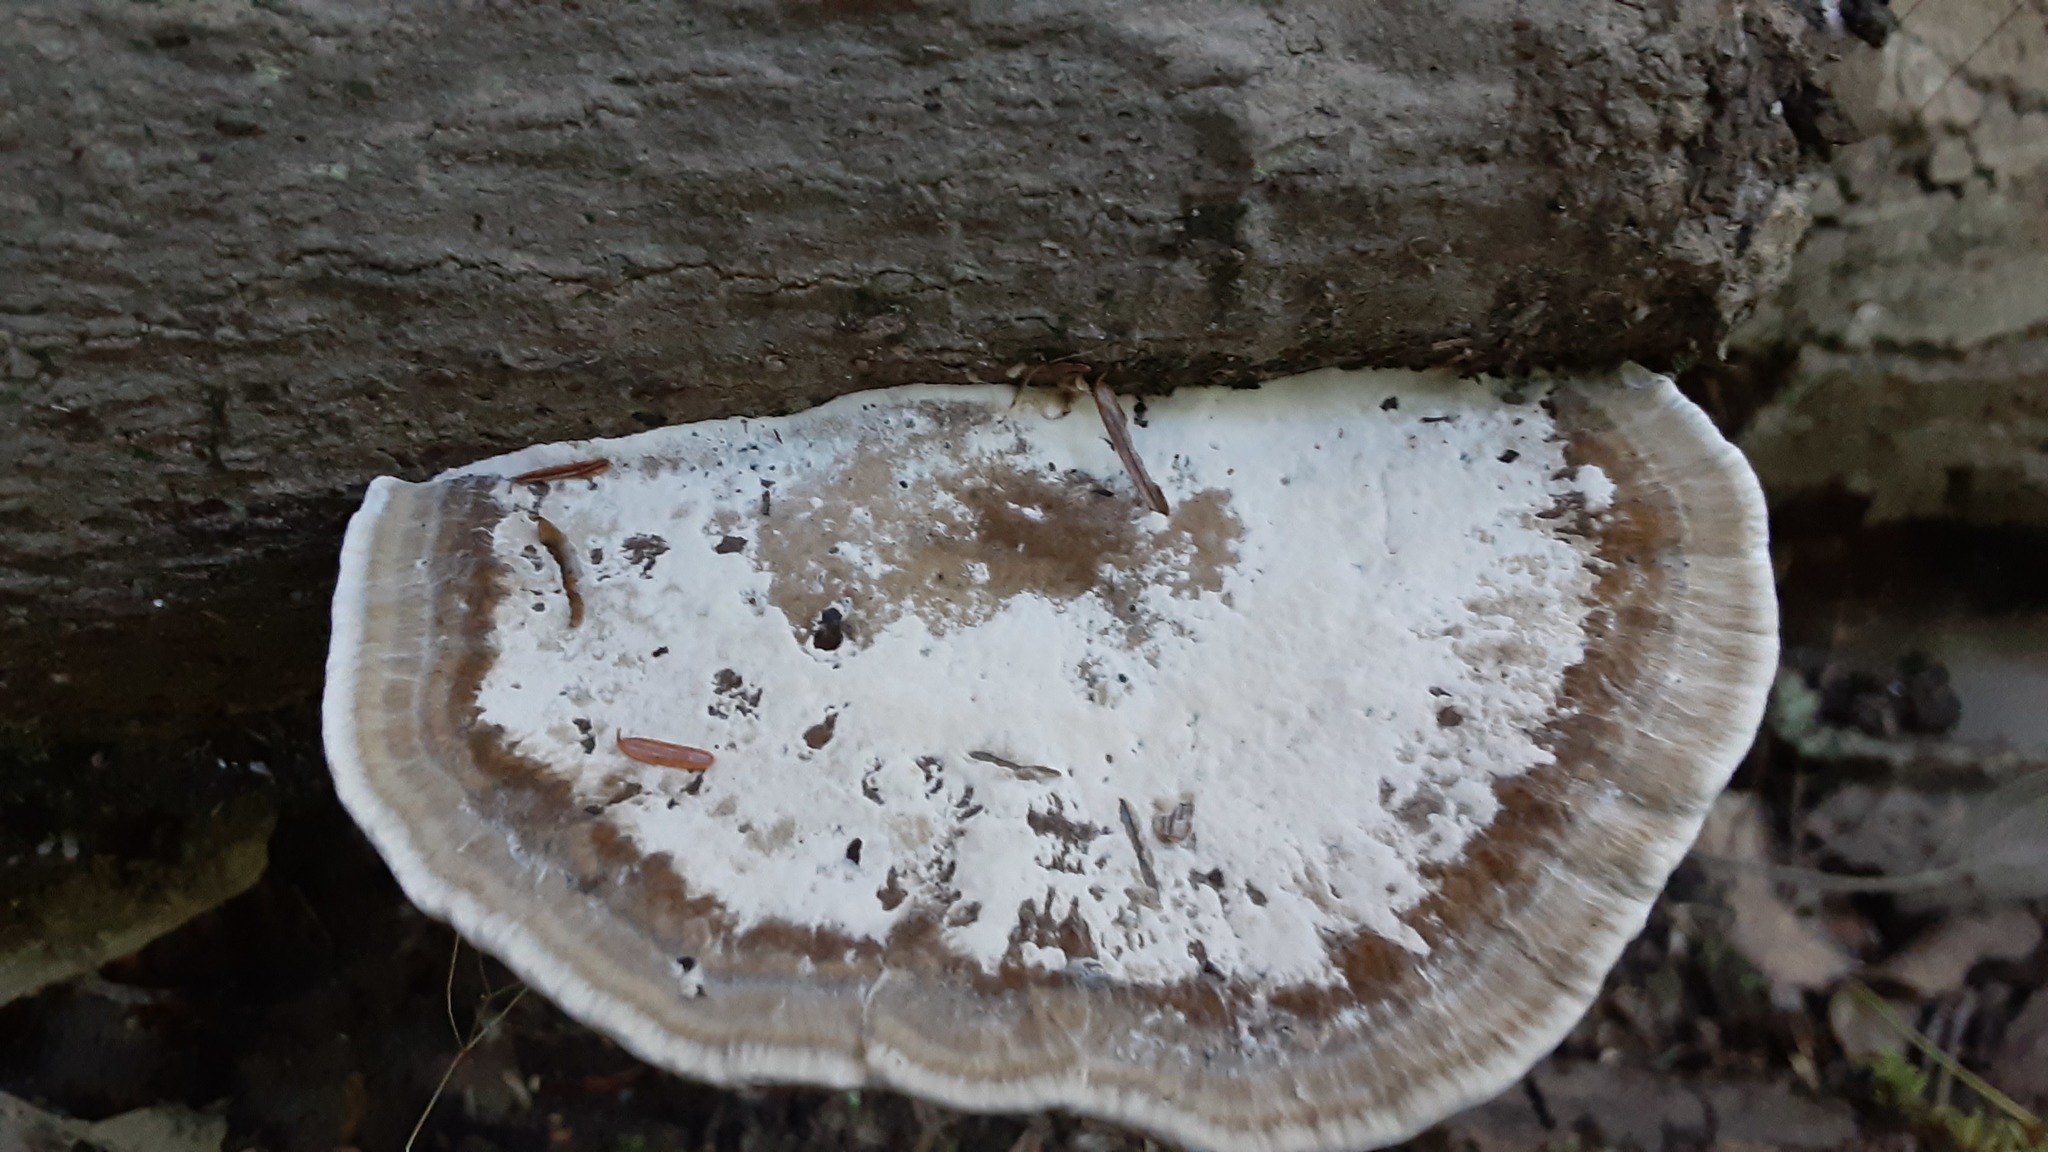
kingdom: Fungi
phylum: Basidiomycota
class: Agaricomycetes
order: Polyporales
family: Polyporaceae
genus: Daedaleopsis
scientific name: Daedaleopsis confragosa
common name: Blushing bracket
